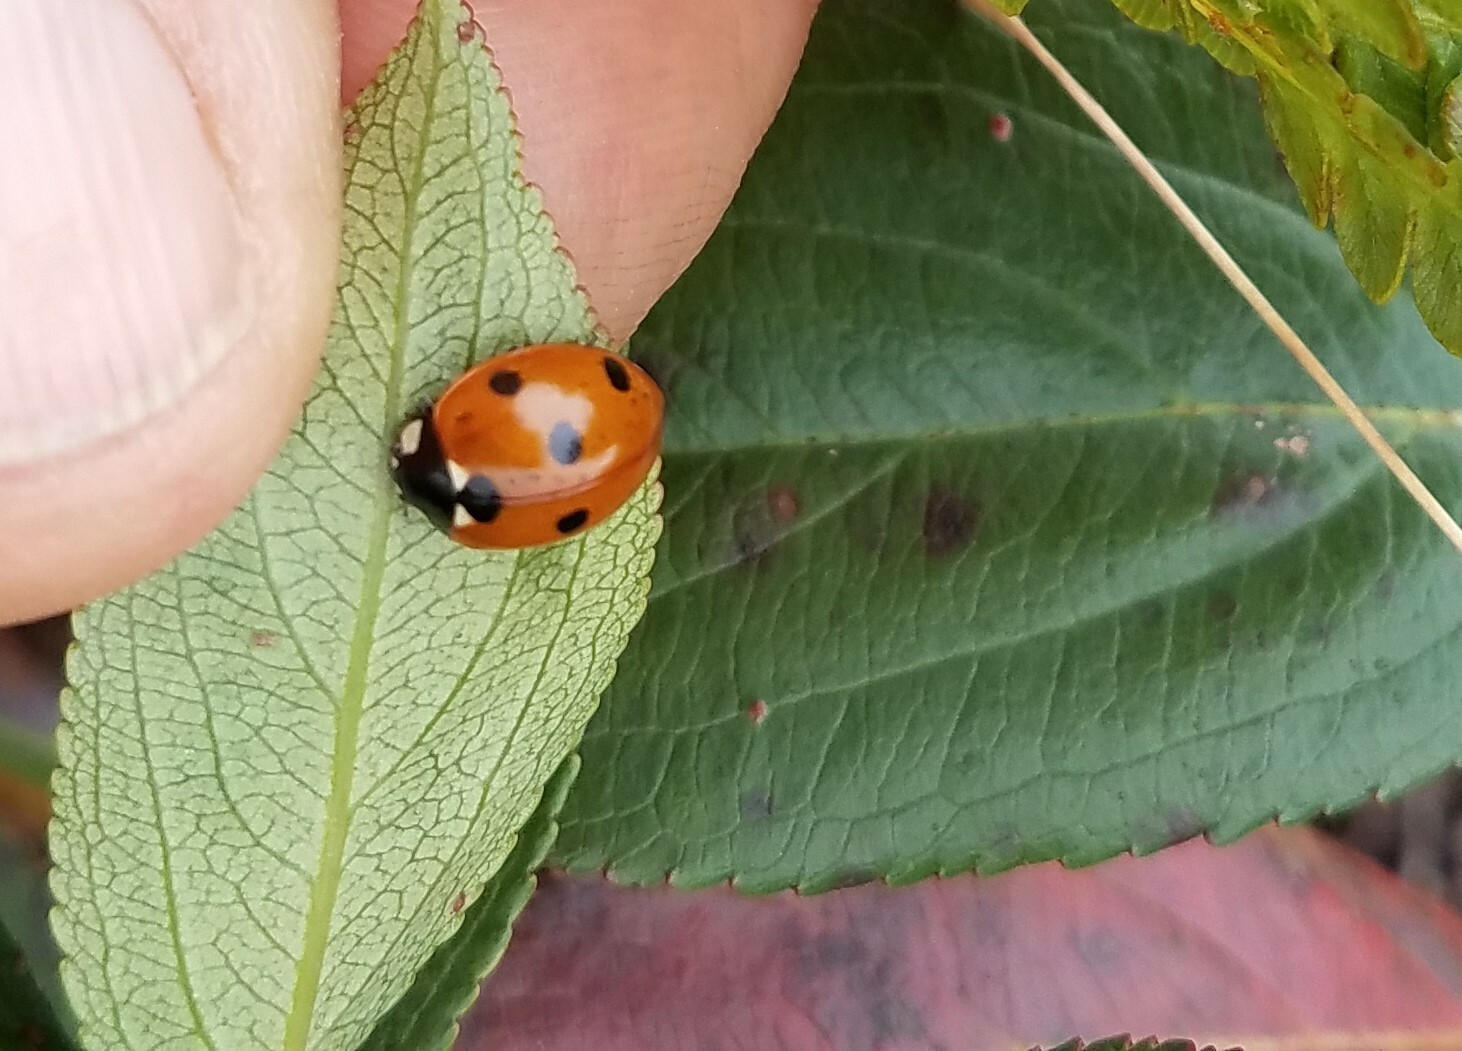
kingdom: Animalia
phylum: Arthropoda
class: Insecta
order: Coleoptera
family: Coccinellidae
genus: Coccinella
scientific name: Coccinella septempunctata
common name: Sevenspotted lady beetle
